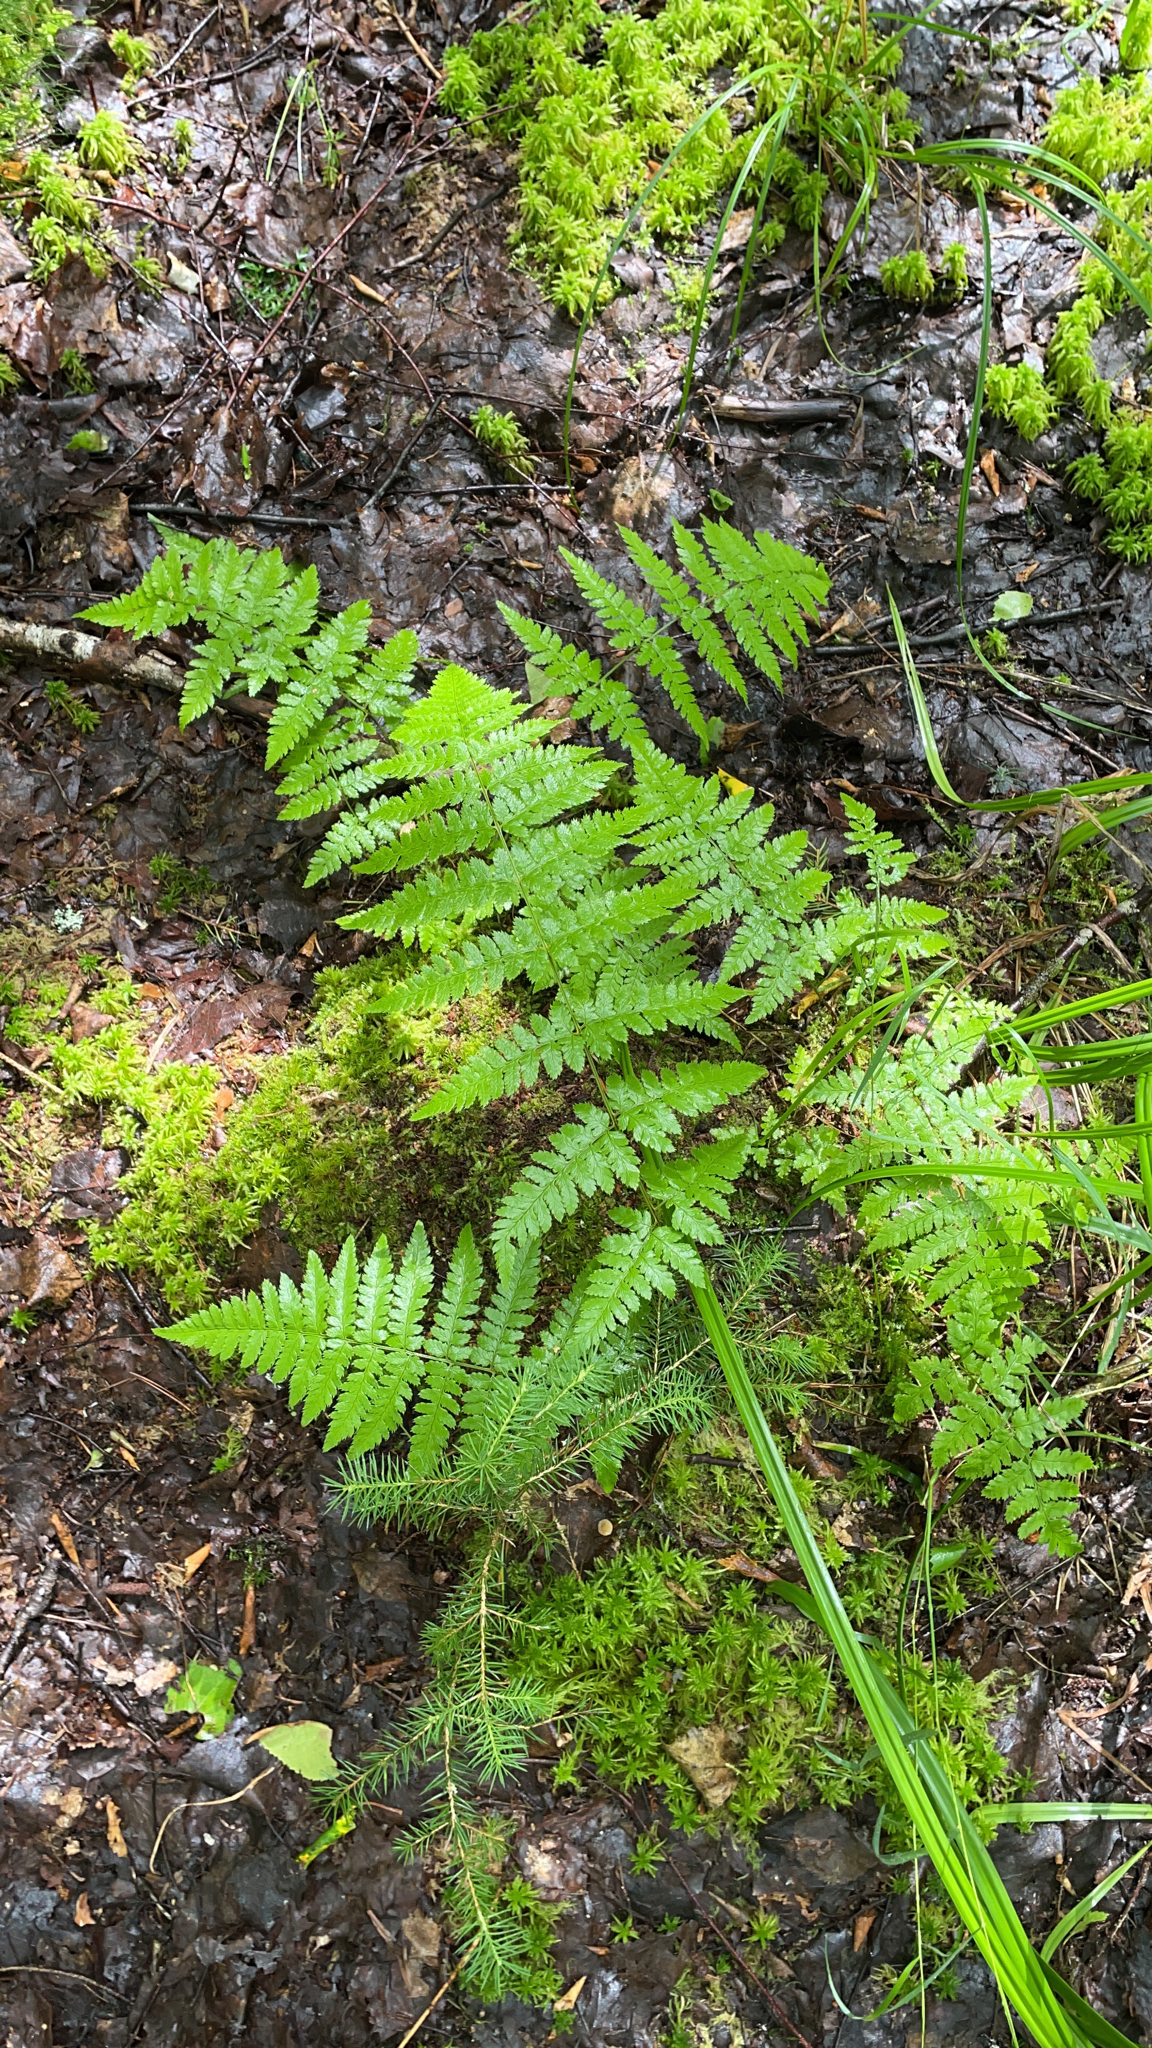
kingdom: Plantae
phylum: Tracheophyta
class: Polypodiopsida
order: Polypodiales
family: Dryopteridaceae
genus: Dryopteris
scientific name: Dryopteris carthusiana
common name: Narrow buckler-fern
